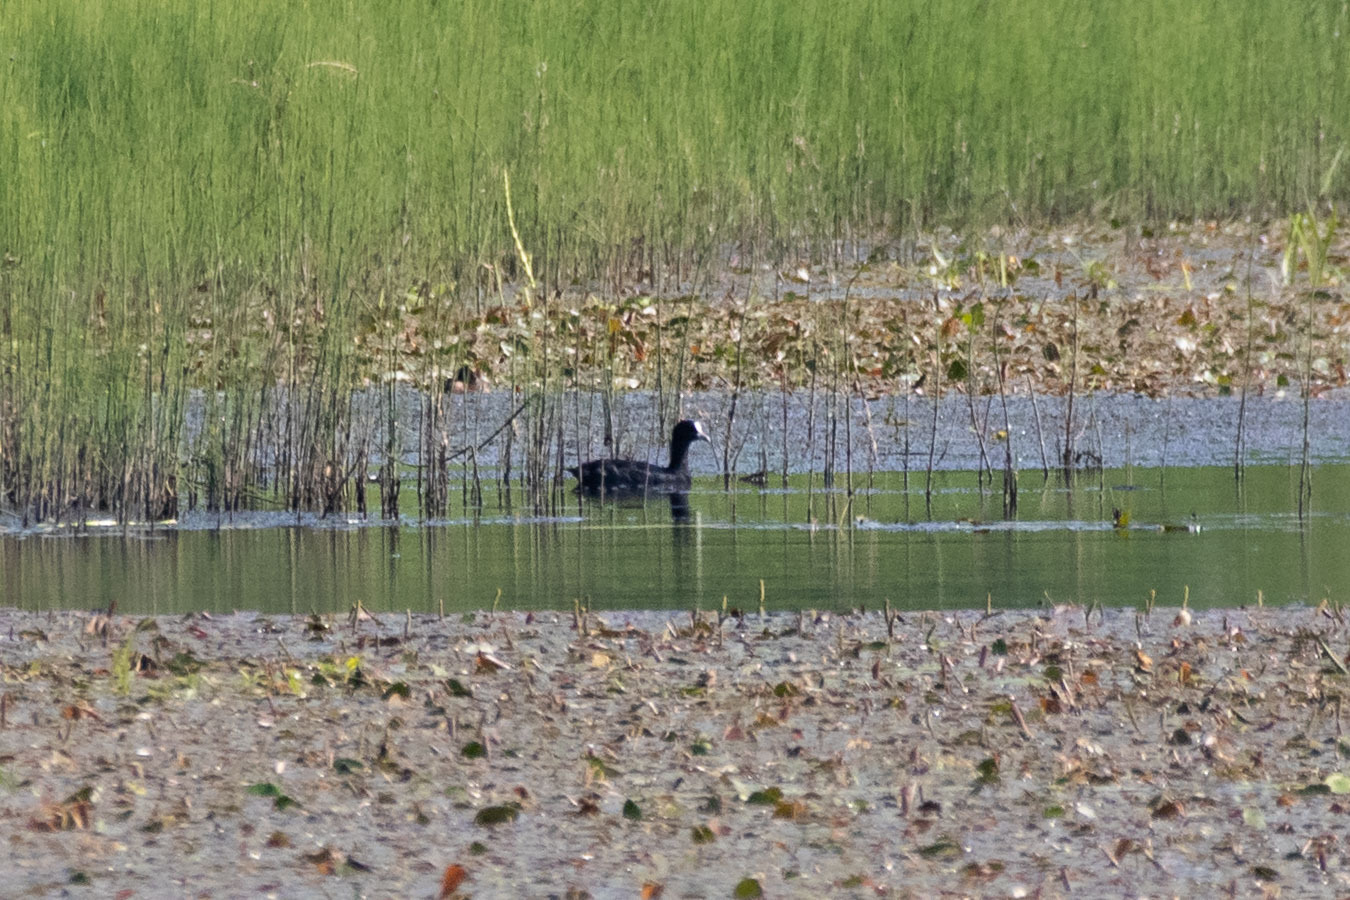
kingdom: Animalia
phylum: Chordata
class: Aves
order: Gruiformes
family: Rallidae
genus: Fulica
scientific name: Fulica atra
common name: Eurasian coot
